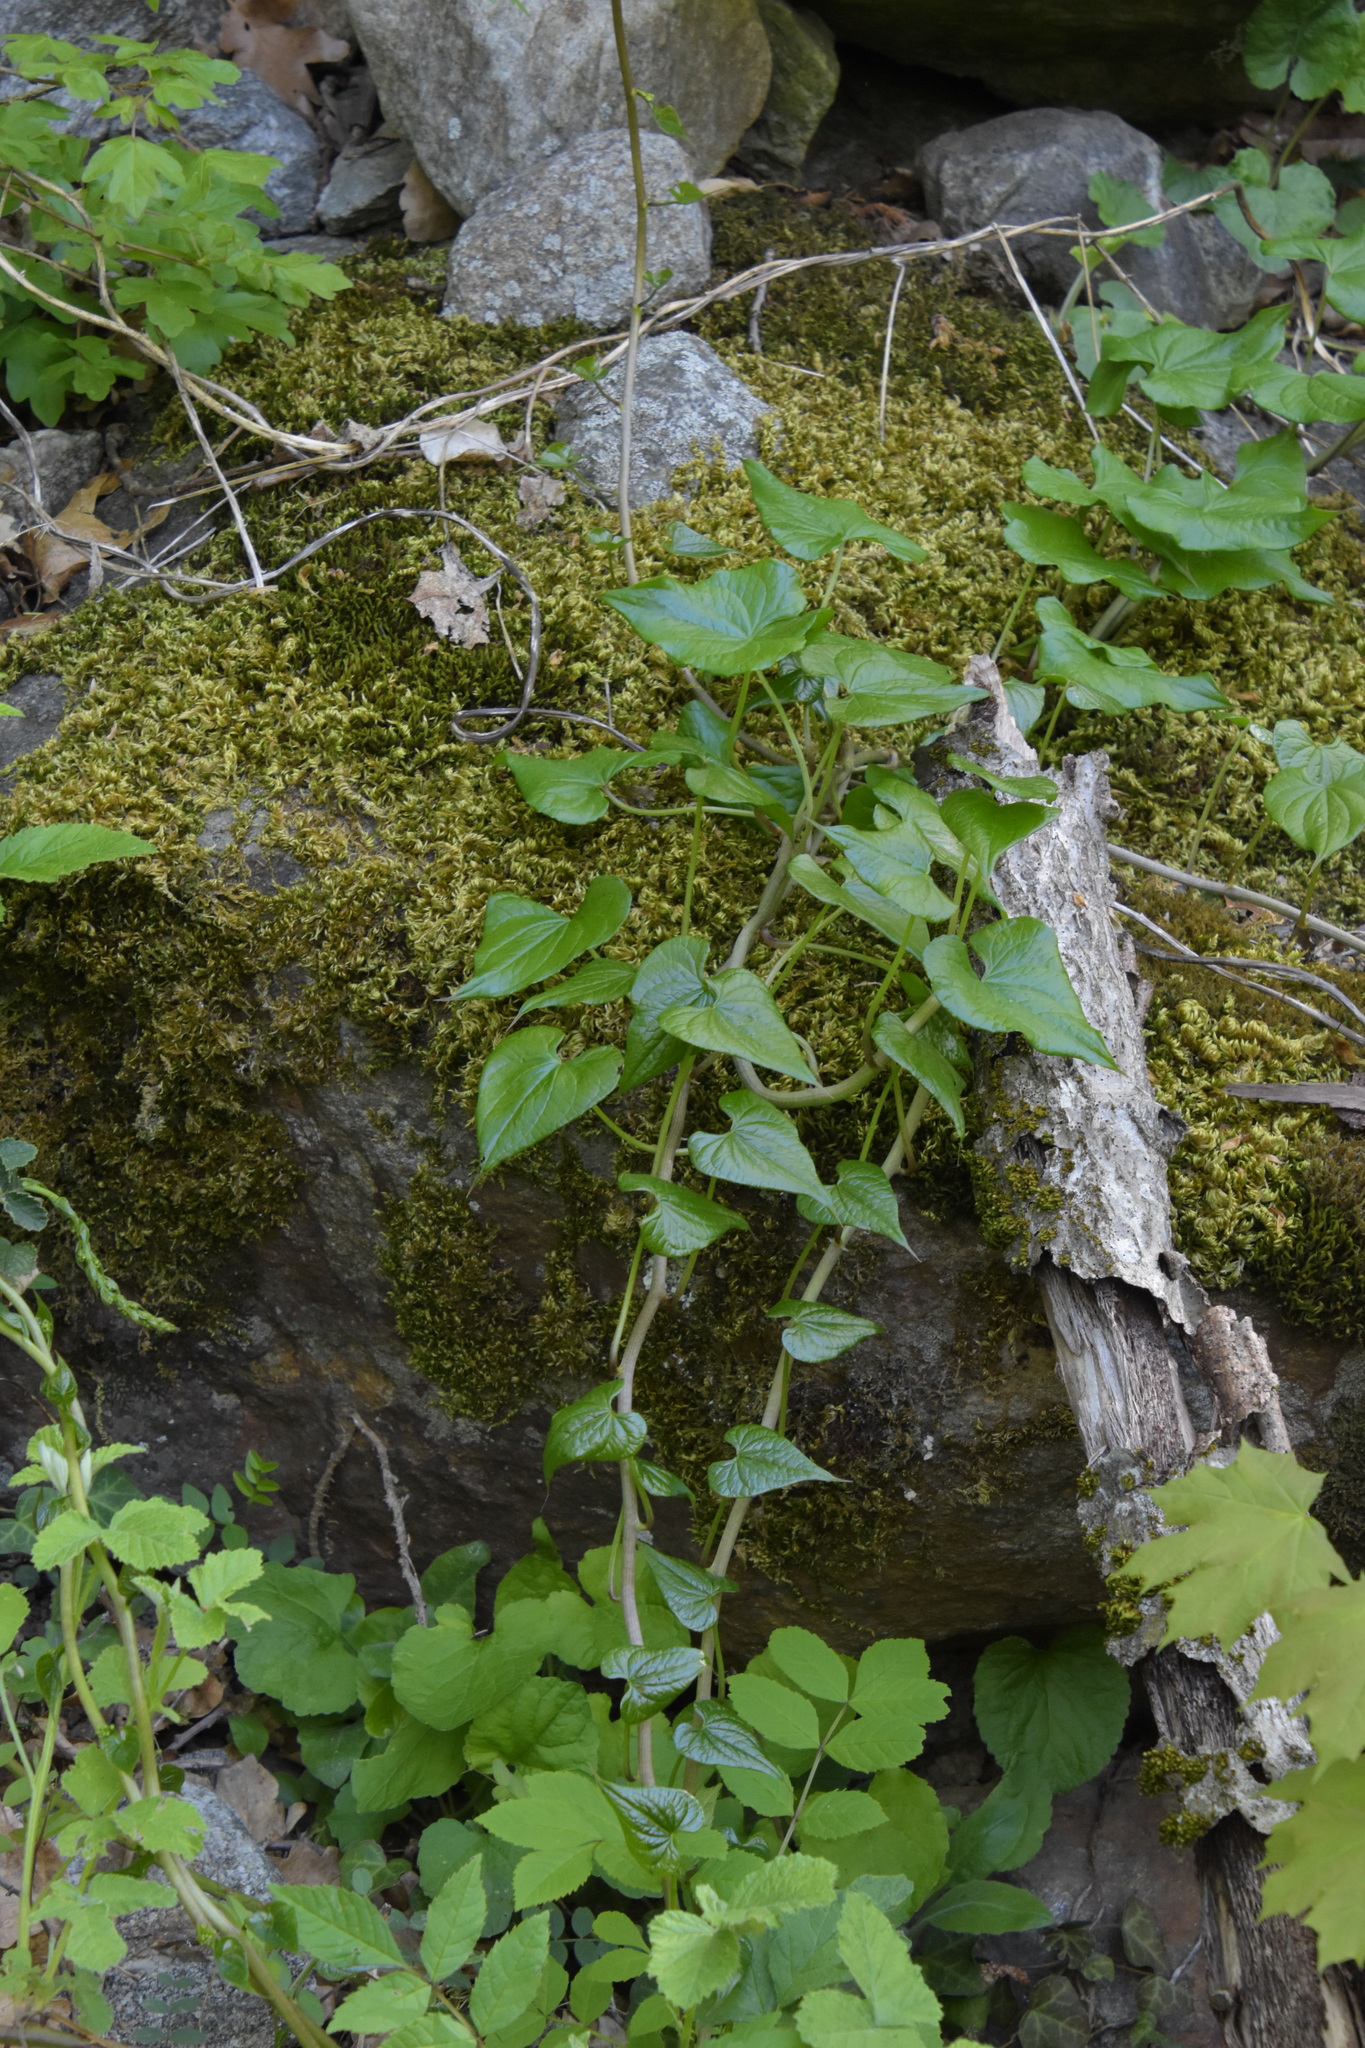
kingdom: Plantae
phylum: Tracheophyta
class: Liliopsida
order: Dioscoreales
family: Dioscoreaceae
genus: Dioscorea
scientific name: Dioscorea communis
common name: Black-bindweed
